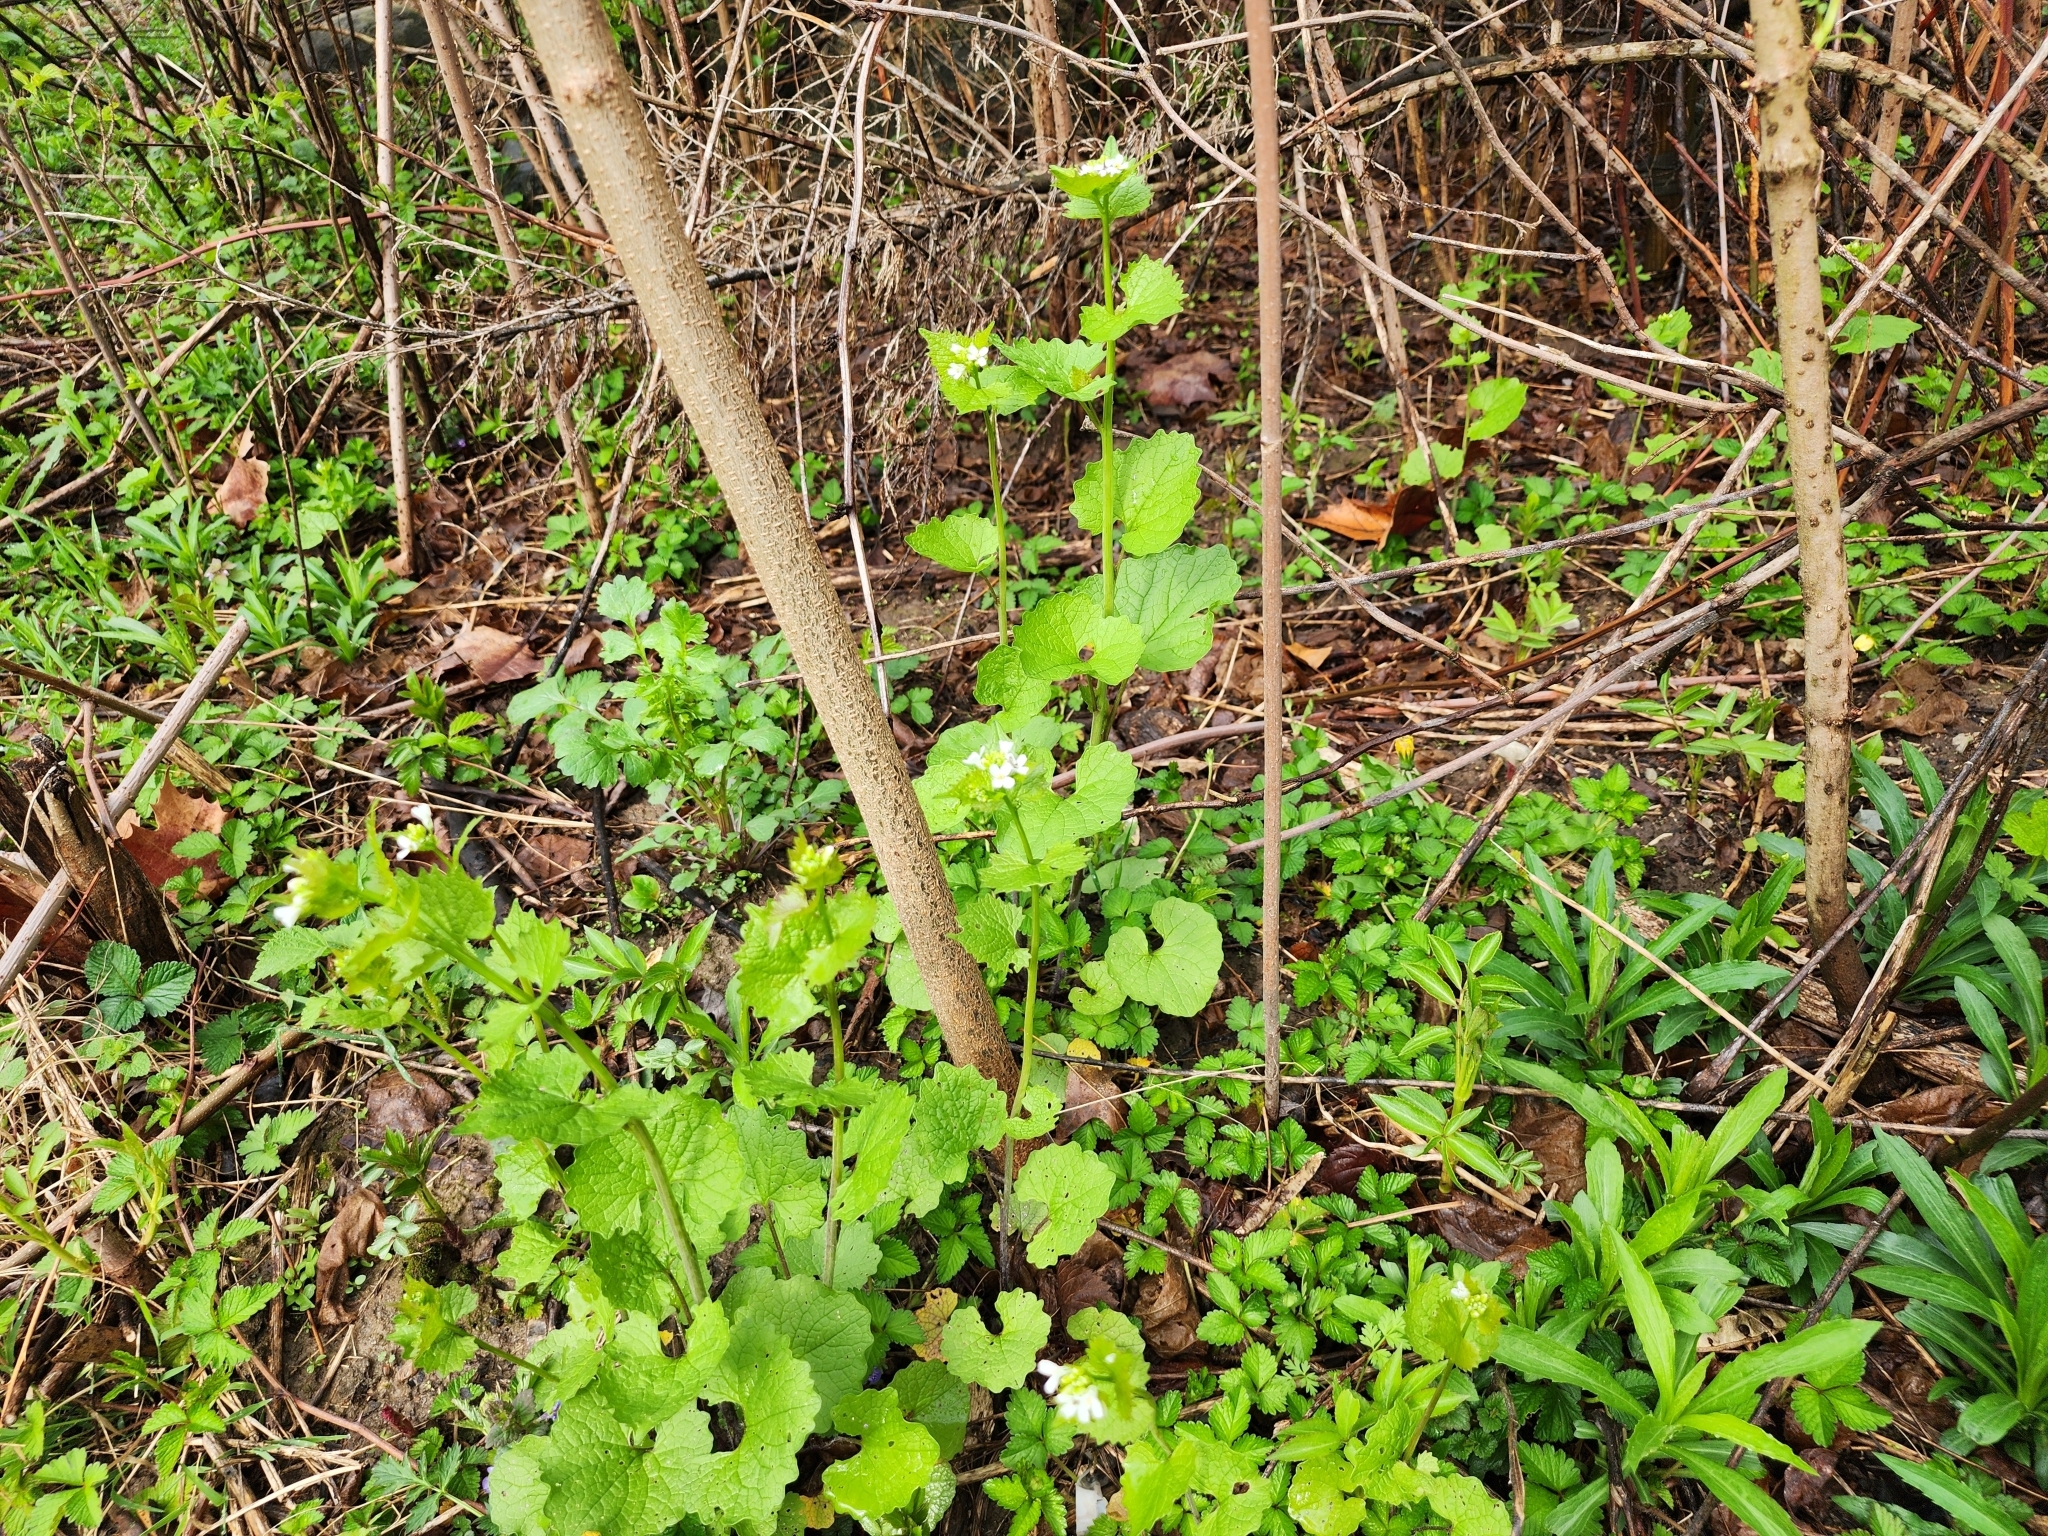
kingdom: Plantae
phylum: Tracheophyta
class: Magnoliopsida
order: Brassicales
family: Brassicaceae
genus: Alliaria
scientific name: Alliaria petiolata
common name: Garlic mustard
